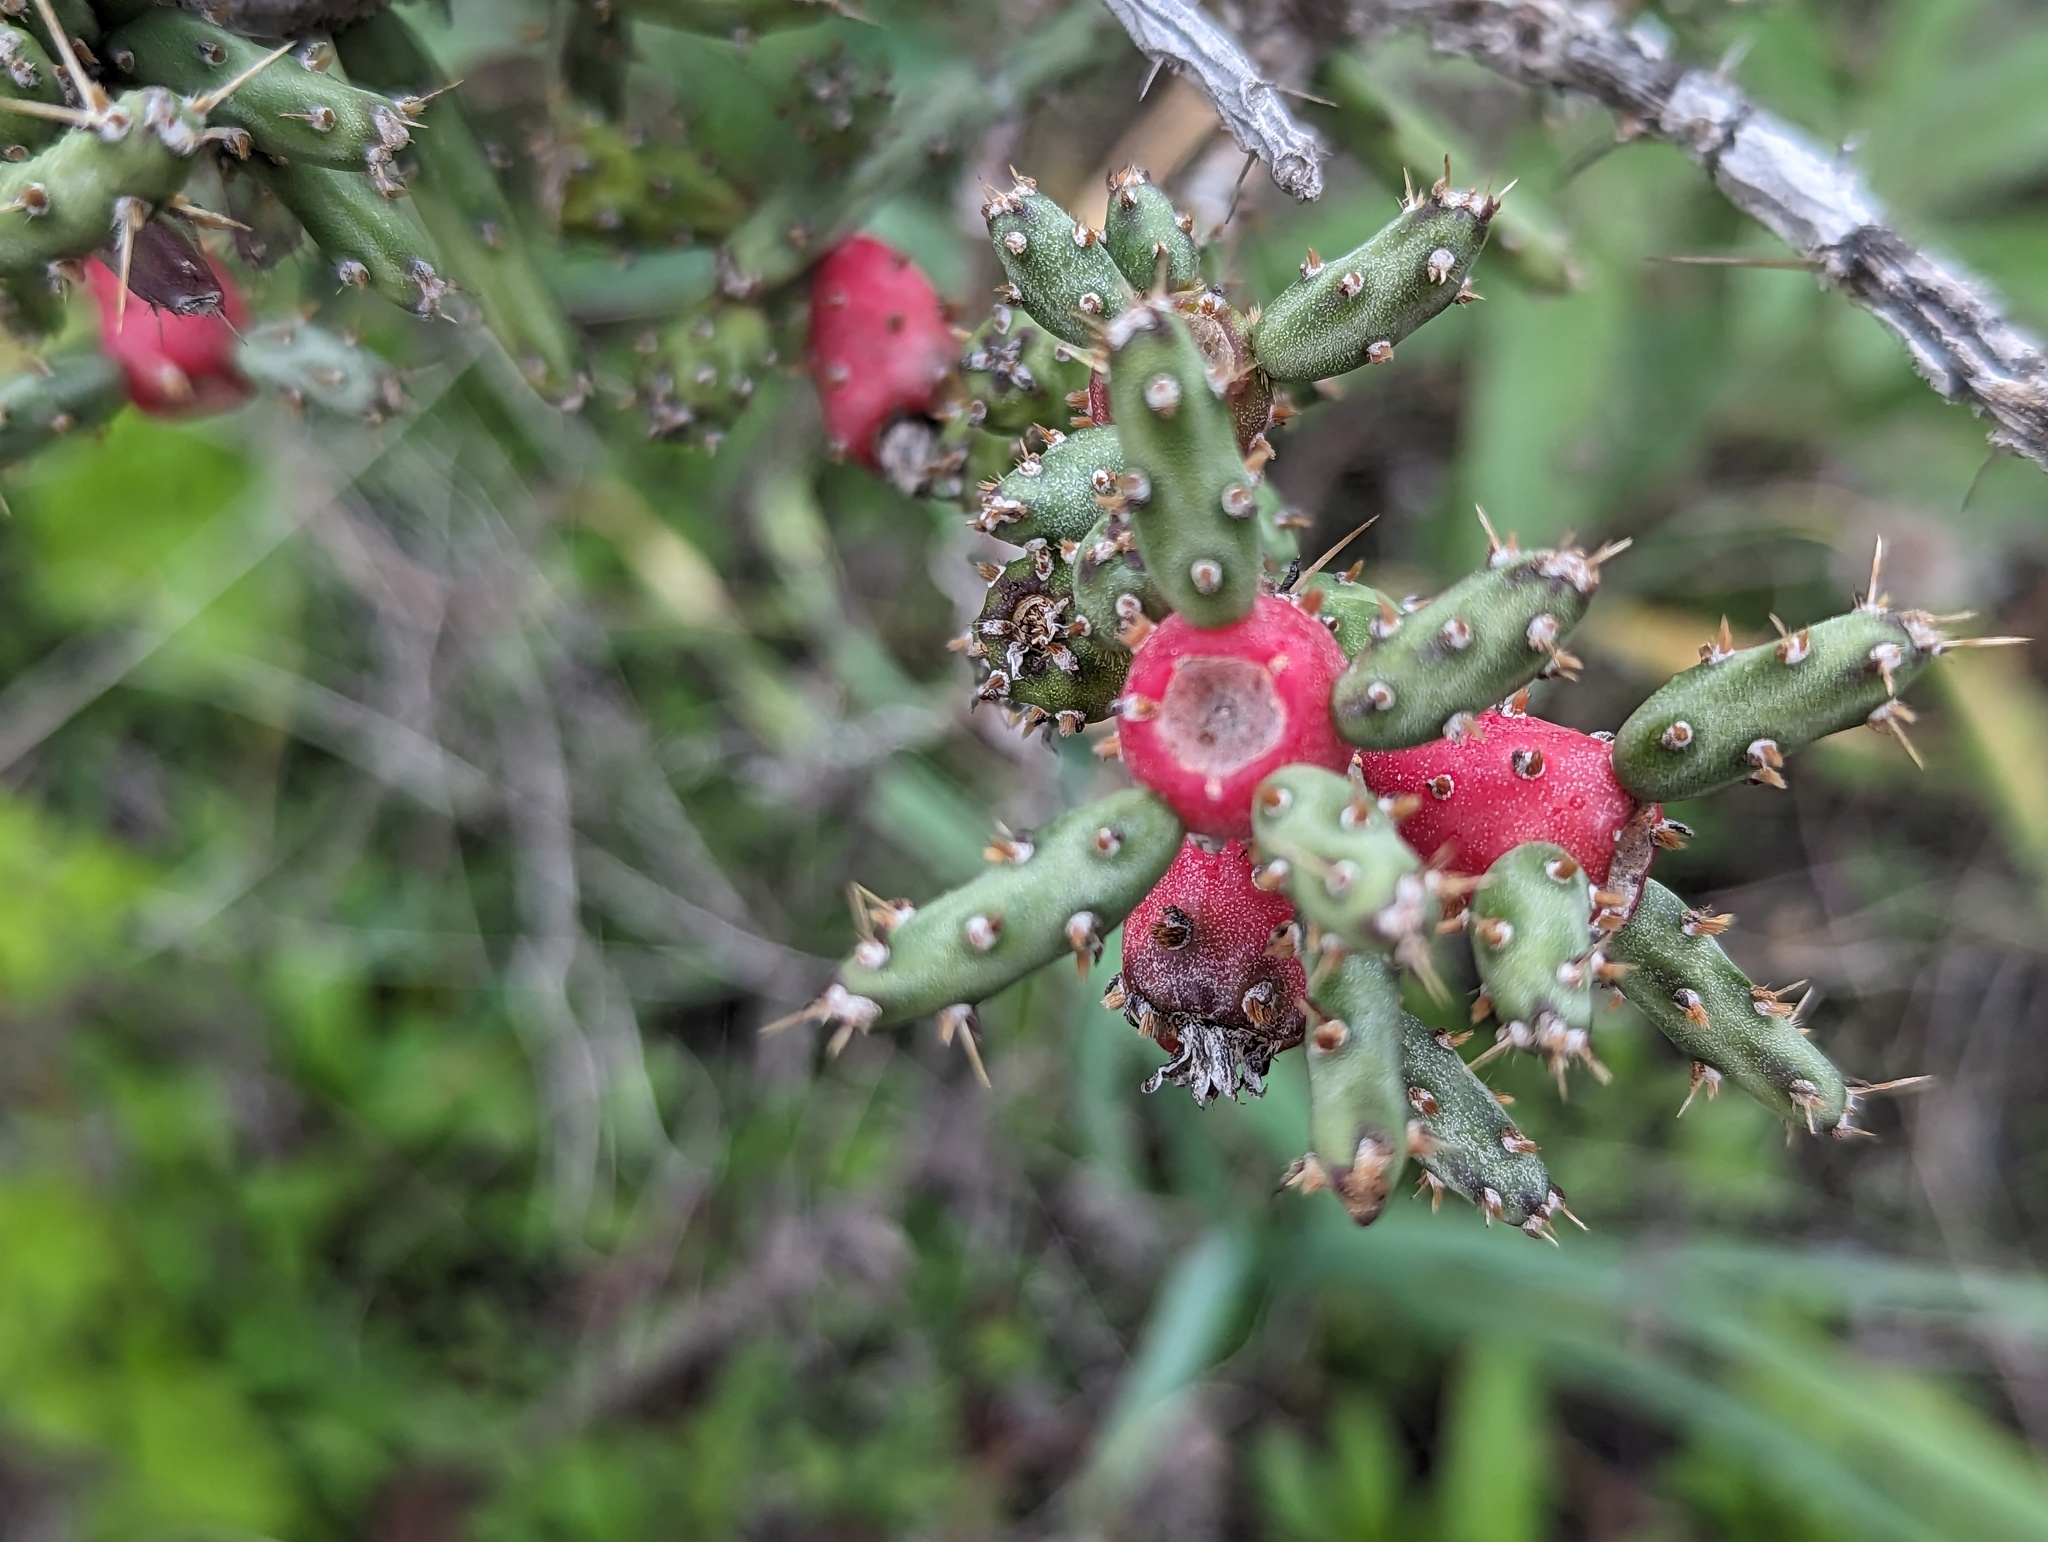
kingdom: Plantae
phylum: Tracheophyta
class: Magnoliopsida
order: Caryophyllales
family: Cactaceae
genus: Cylindropuntia
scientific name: Cylindropuntia leptocaulis
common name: Christmas cactus
